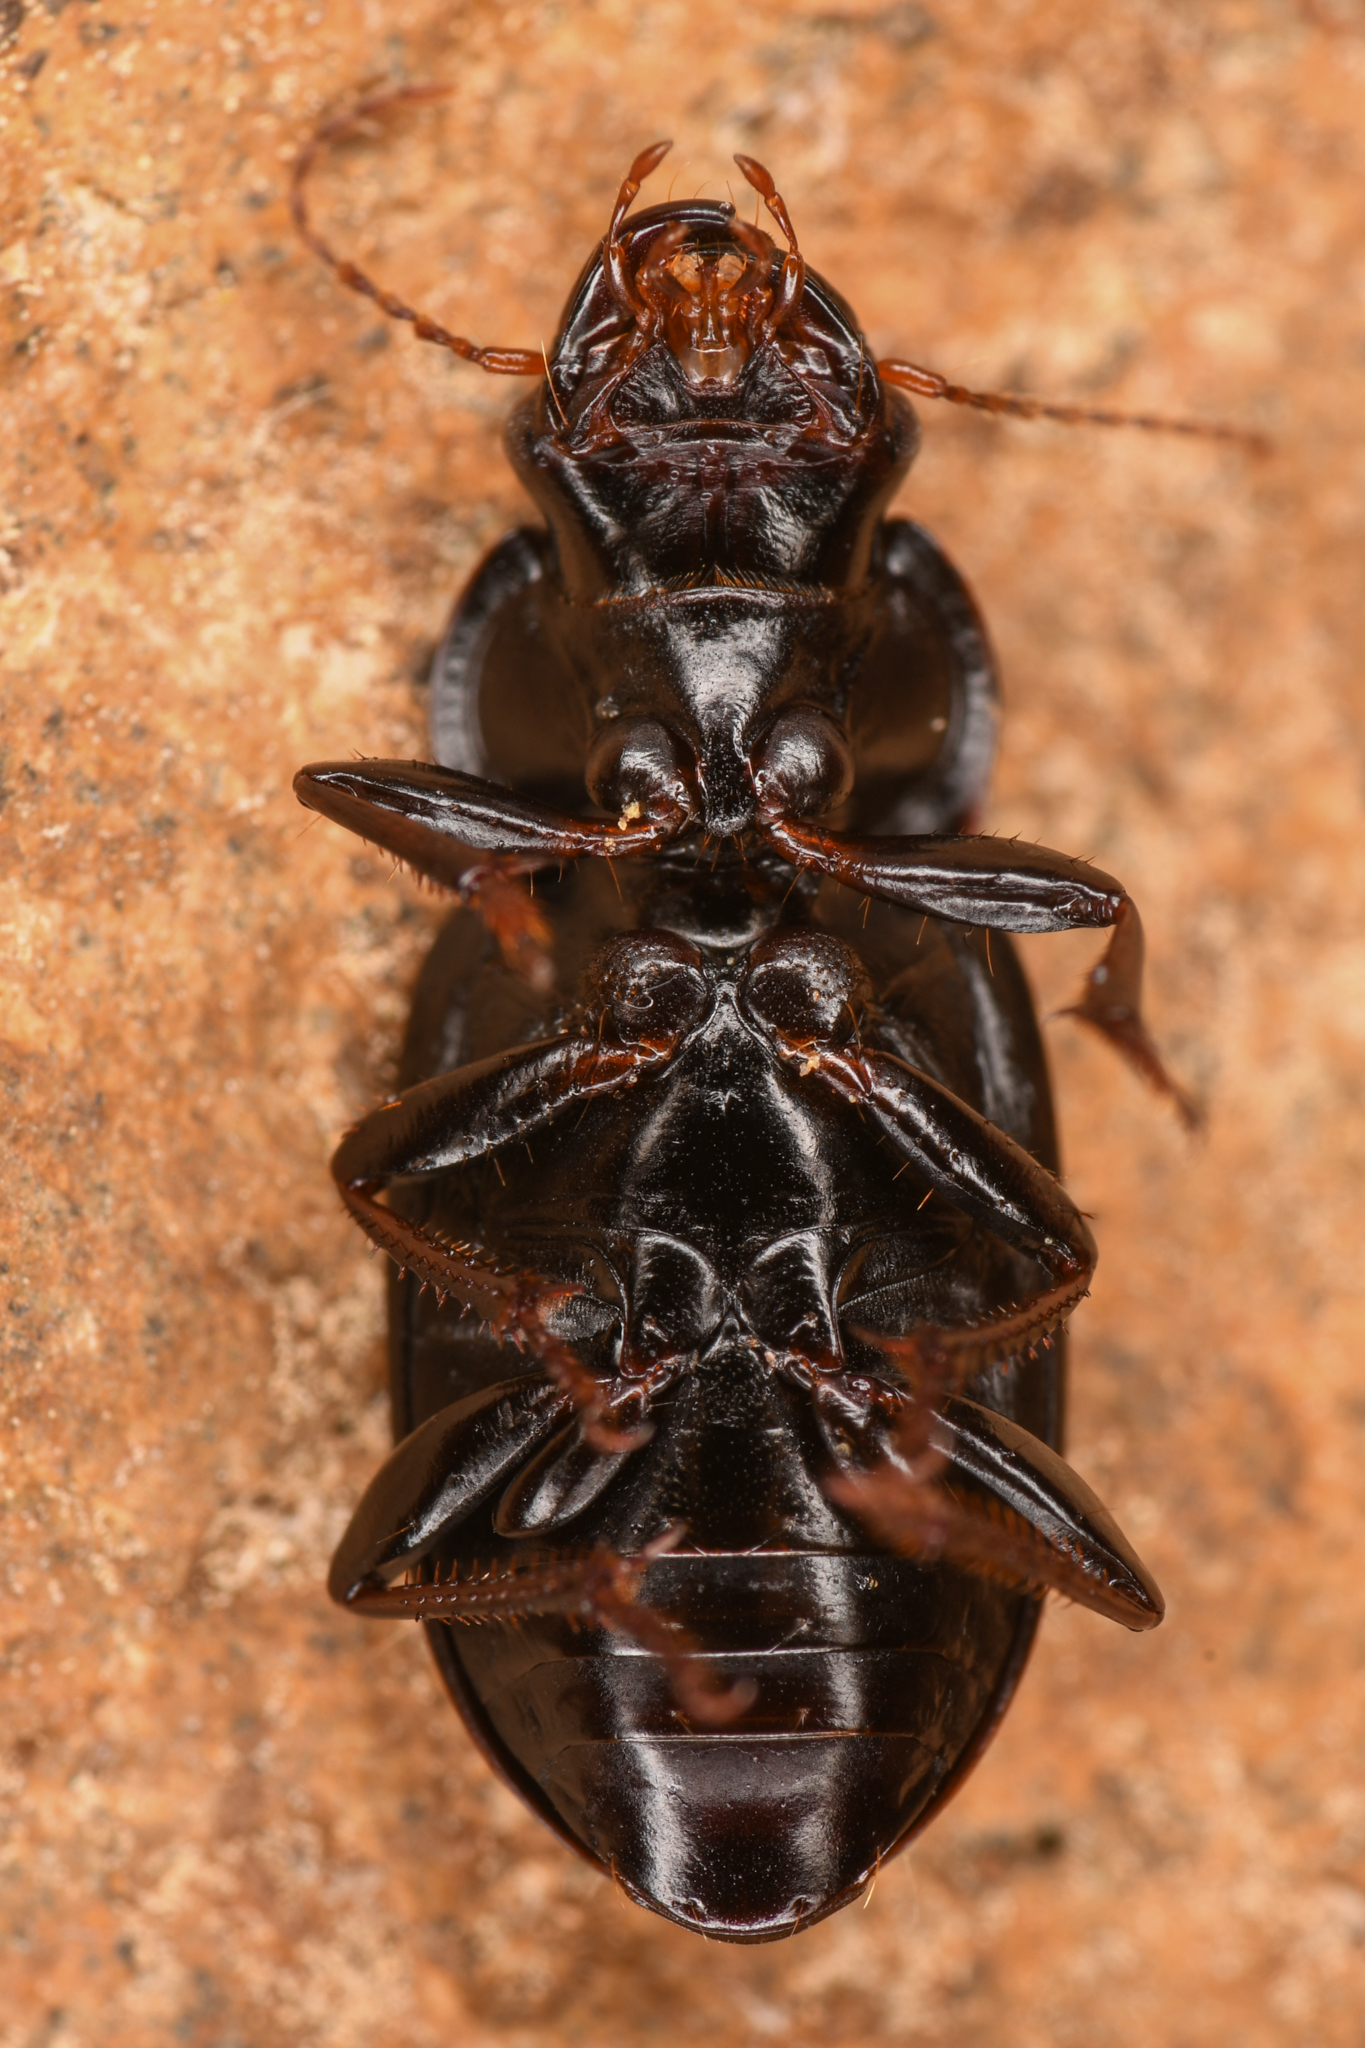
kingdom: Animalia
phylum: Arthropoda
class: Insecta
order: Coleoptera
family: Carabidae
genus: Harpalus
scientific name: Harpalus laevipes
